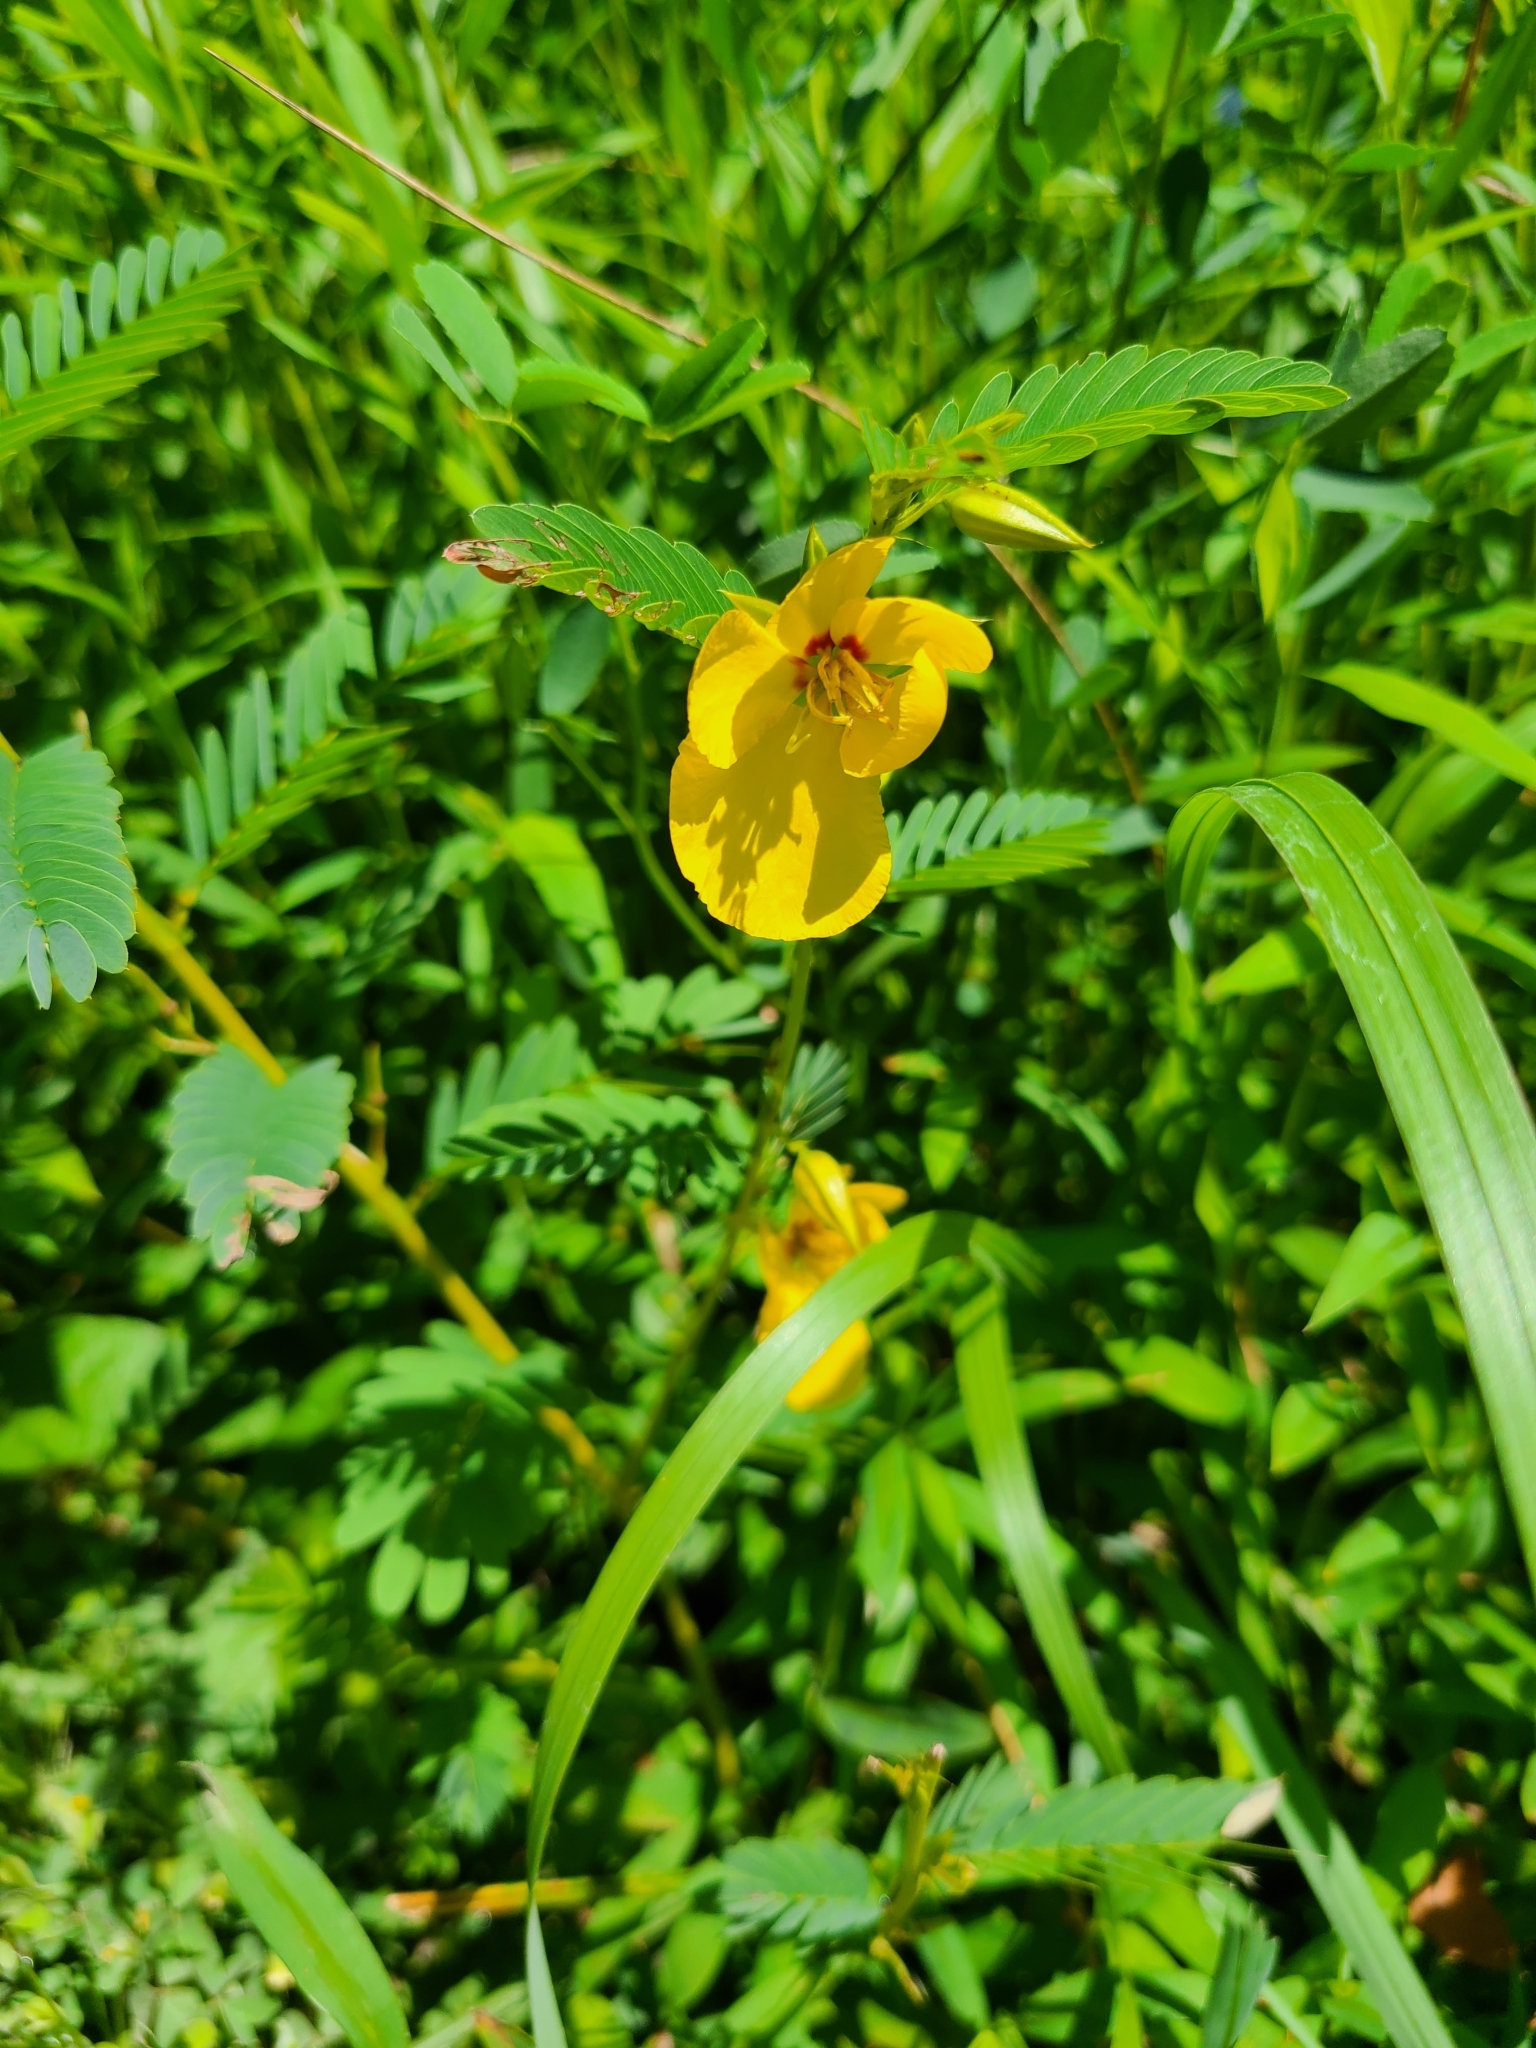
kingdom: Plantae
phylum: Tracheophyta
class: Magnoliopsida
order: Fabales
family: Fabaceae
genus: Chamaecrista
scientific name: Chamaecrista fasciculata
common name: Golden cassia
